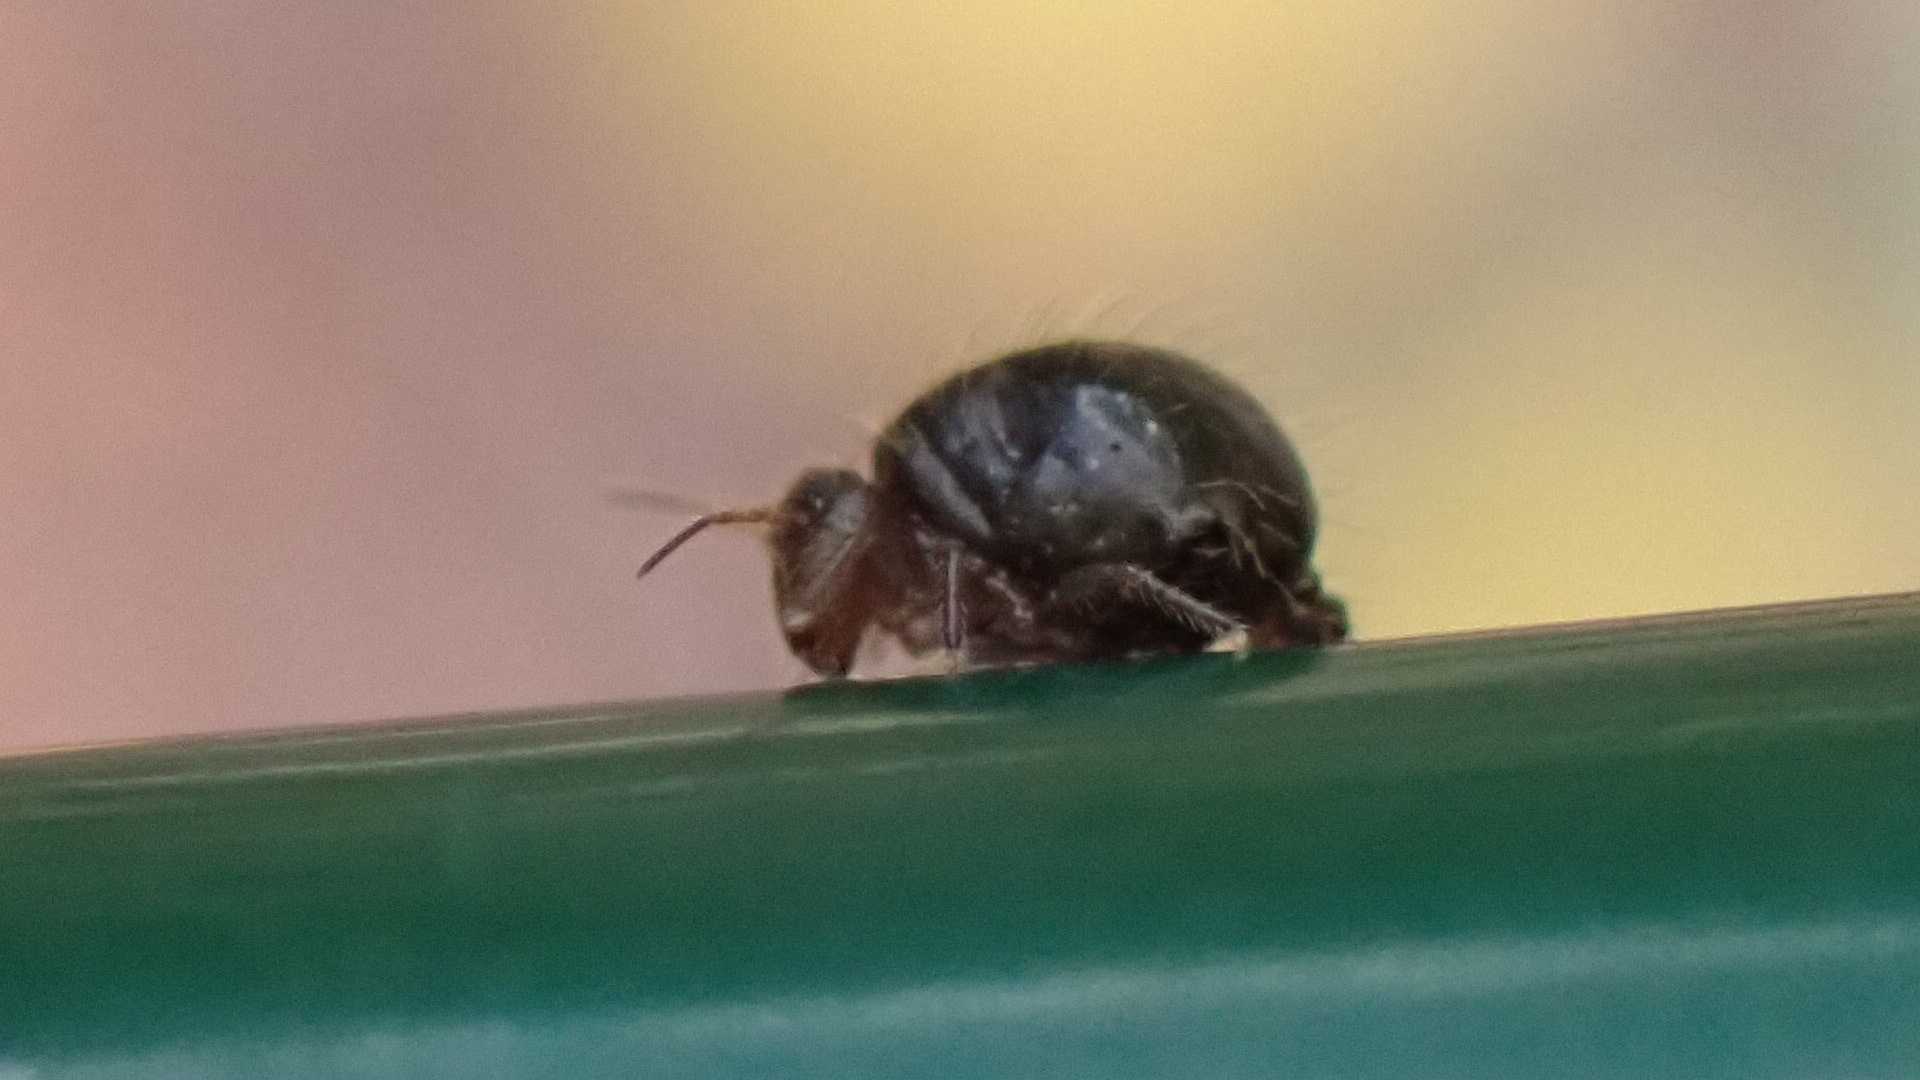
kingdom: Animalia
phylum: Arthropoda
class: Collembola
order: Symphypleona
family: Sminthuridae
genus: Allacma
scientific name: Allacma fusca
